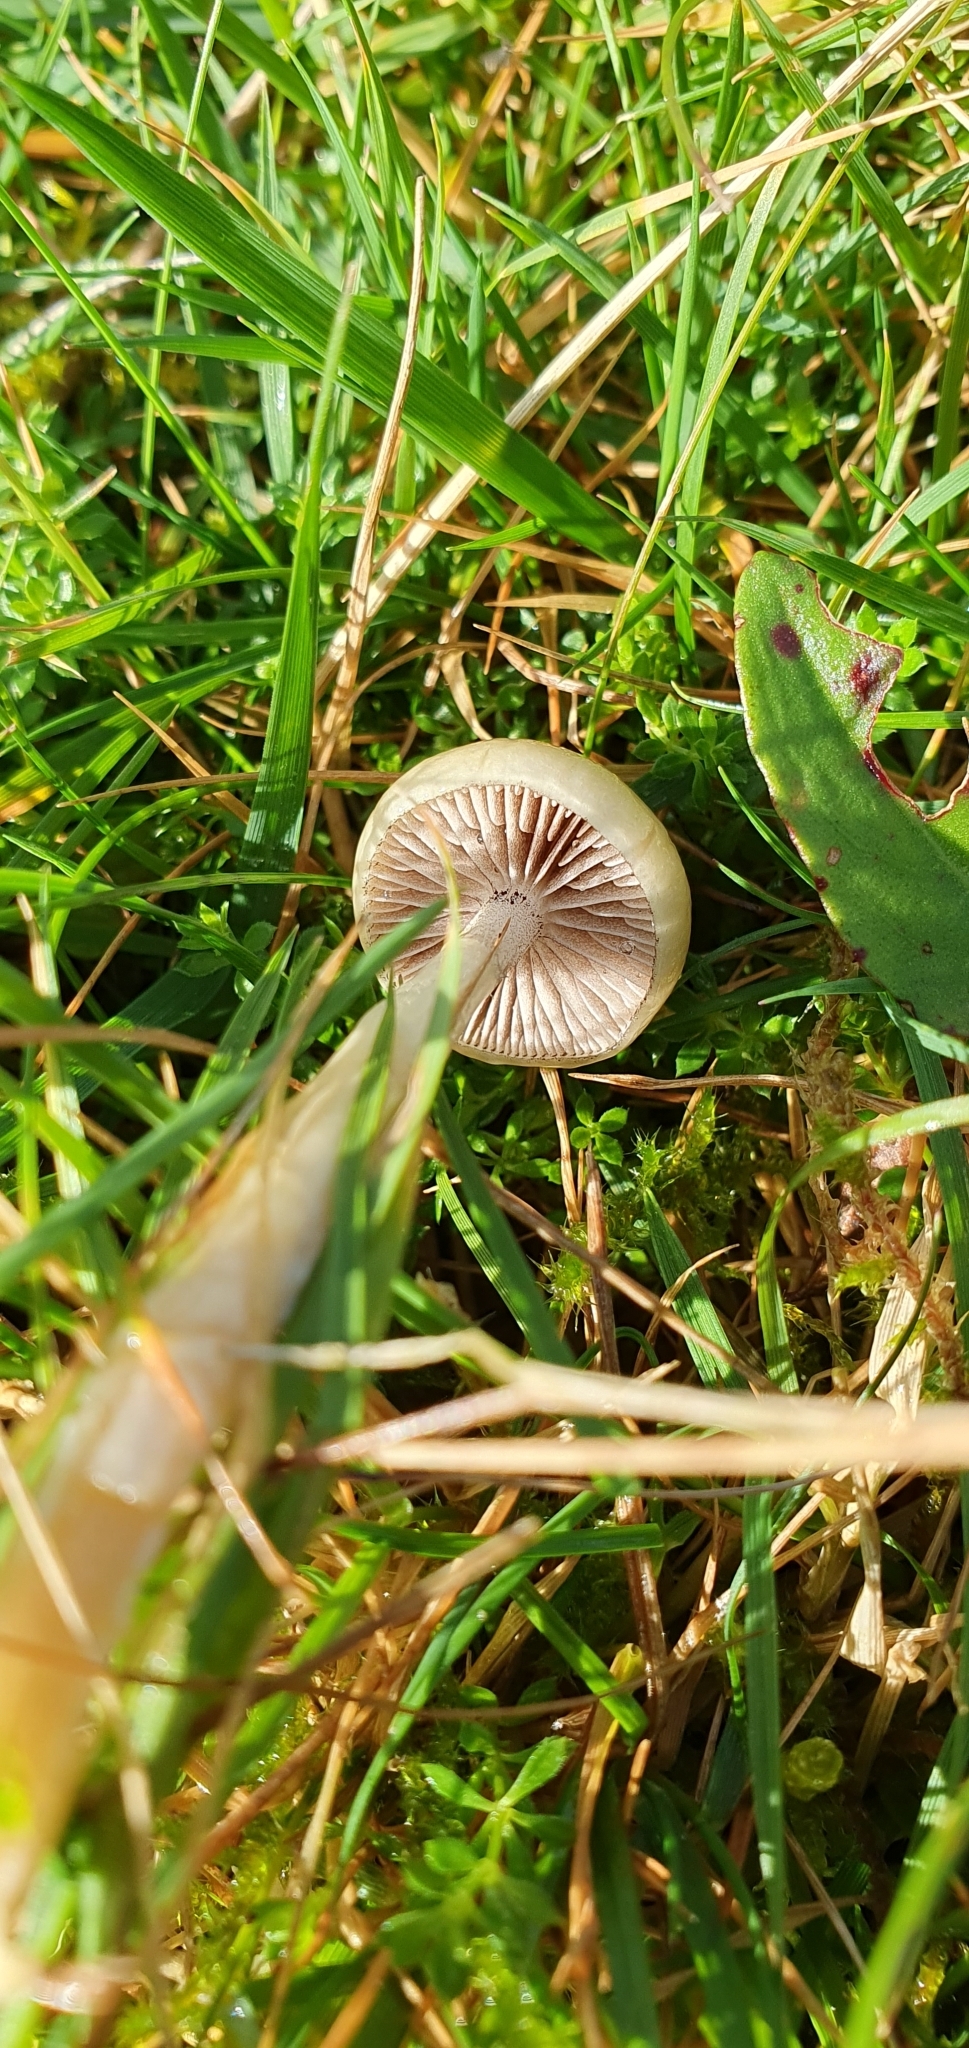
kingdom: Fungi
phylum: Basidiomycota
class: Agaricomycetes
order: Agaricales
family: Strophariaceae
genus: Protostropharia
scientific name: Protostropharia semiglobata
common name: Dung roundhead
